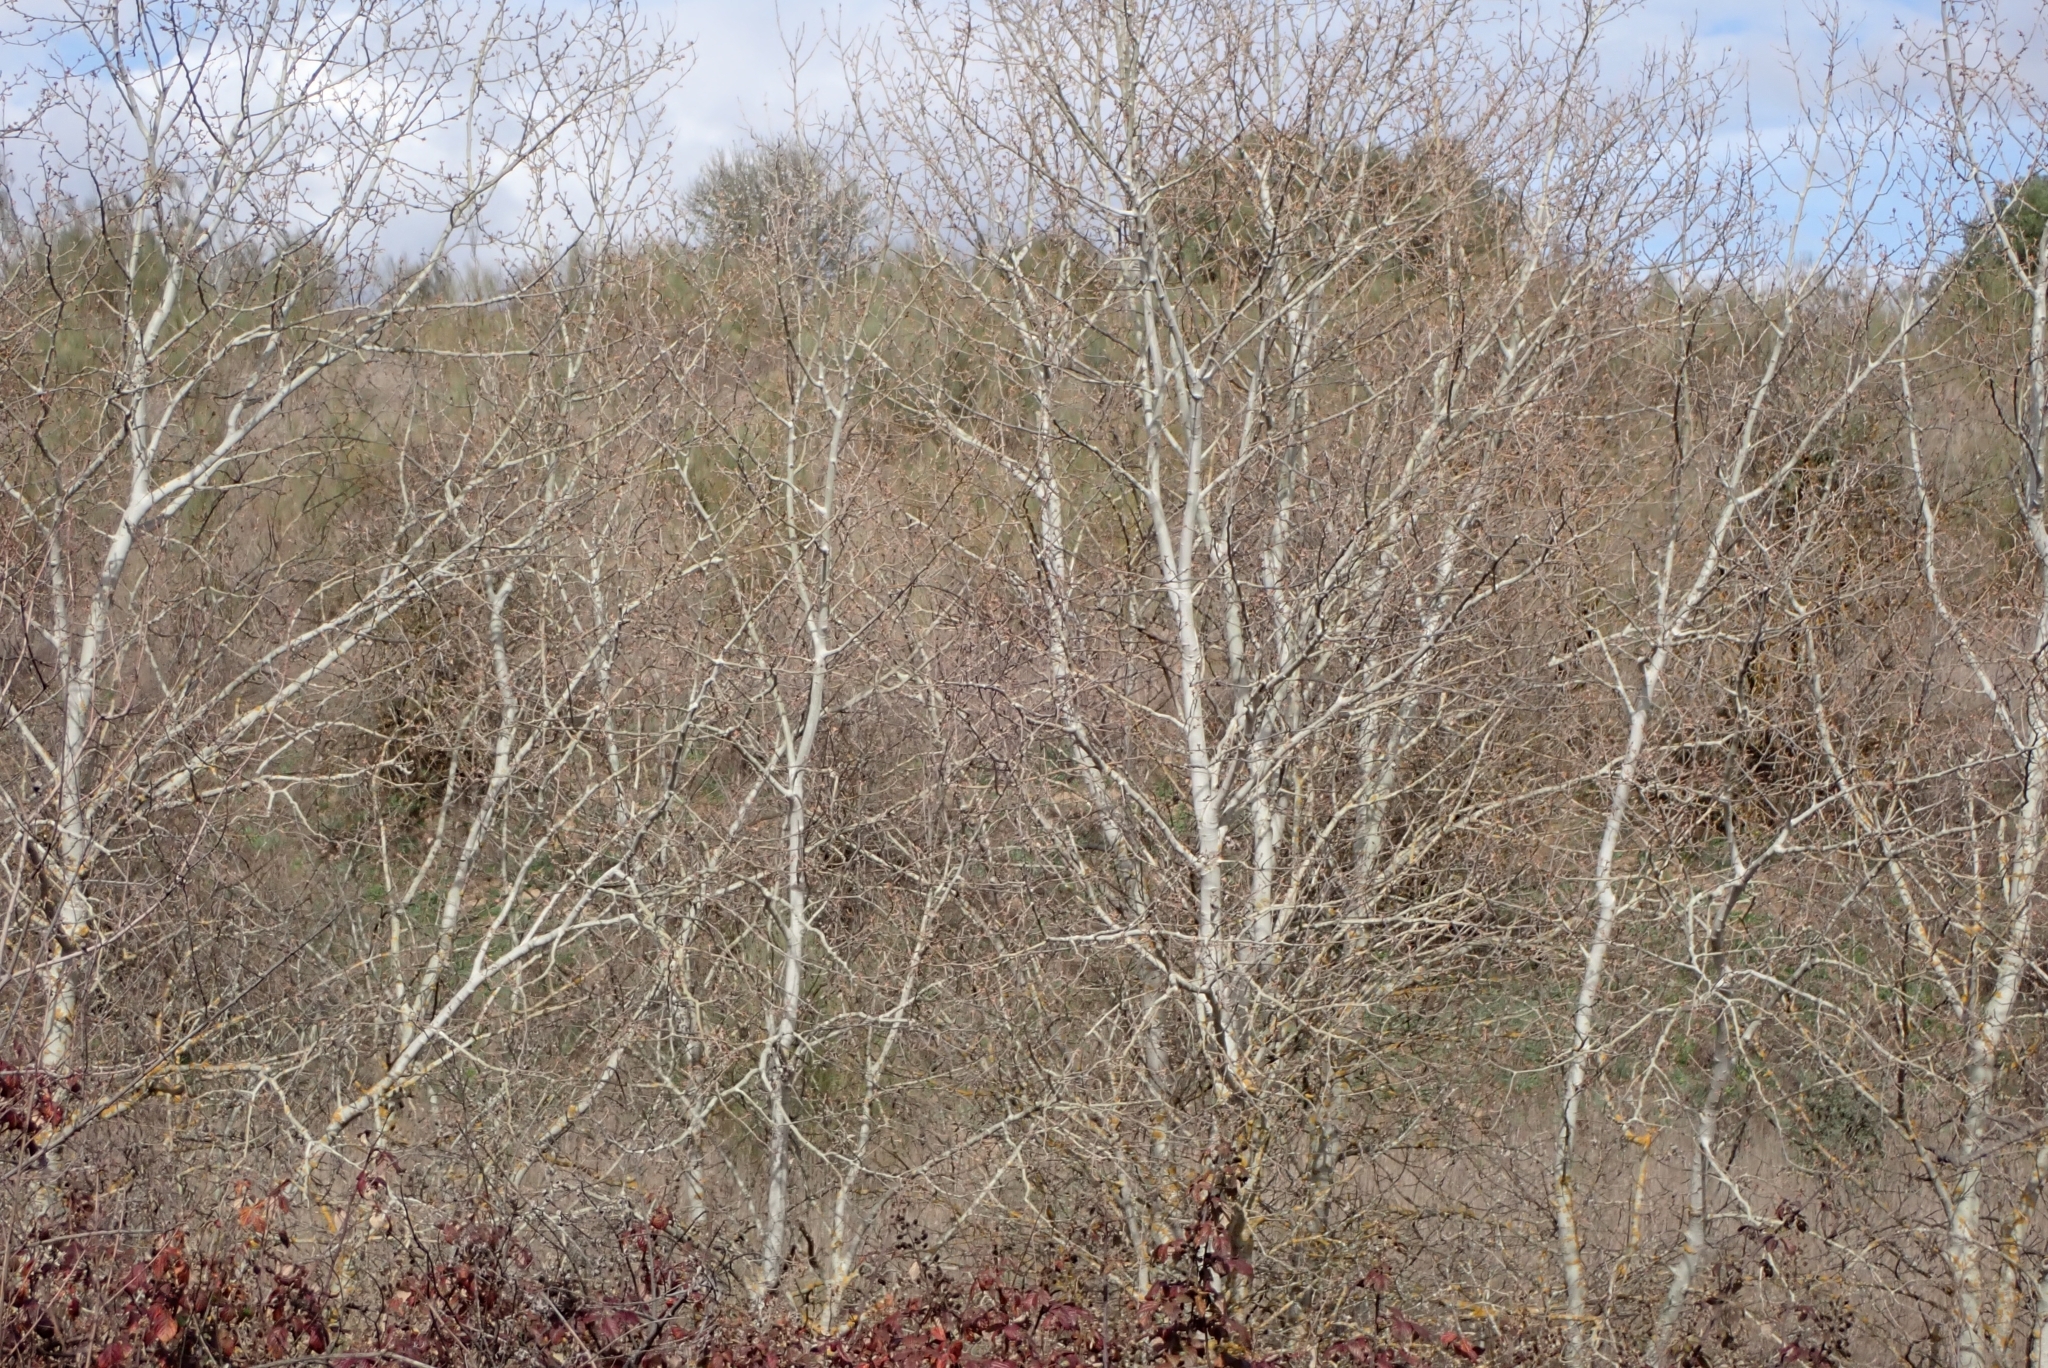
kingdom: Plantae
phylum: Tracheophyta
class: Magnoliopsida
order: Malpighiales
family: Salicaceae
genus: Populus
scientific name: Populus alba
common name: White poplar
